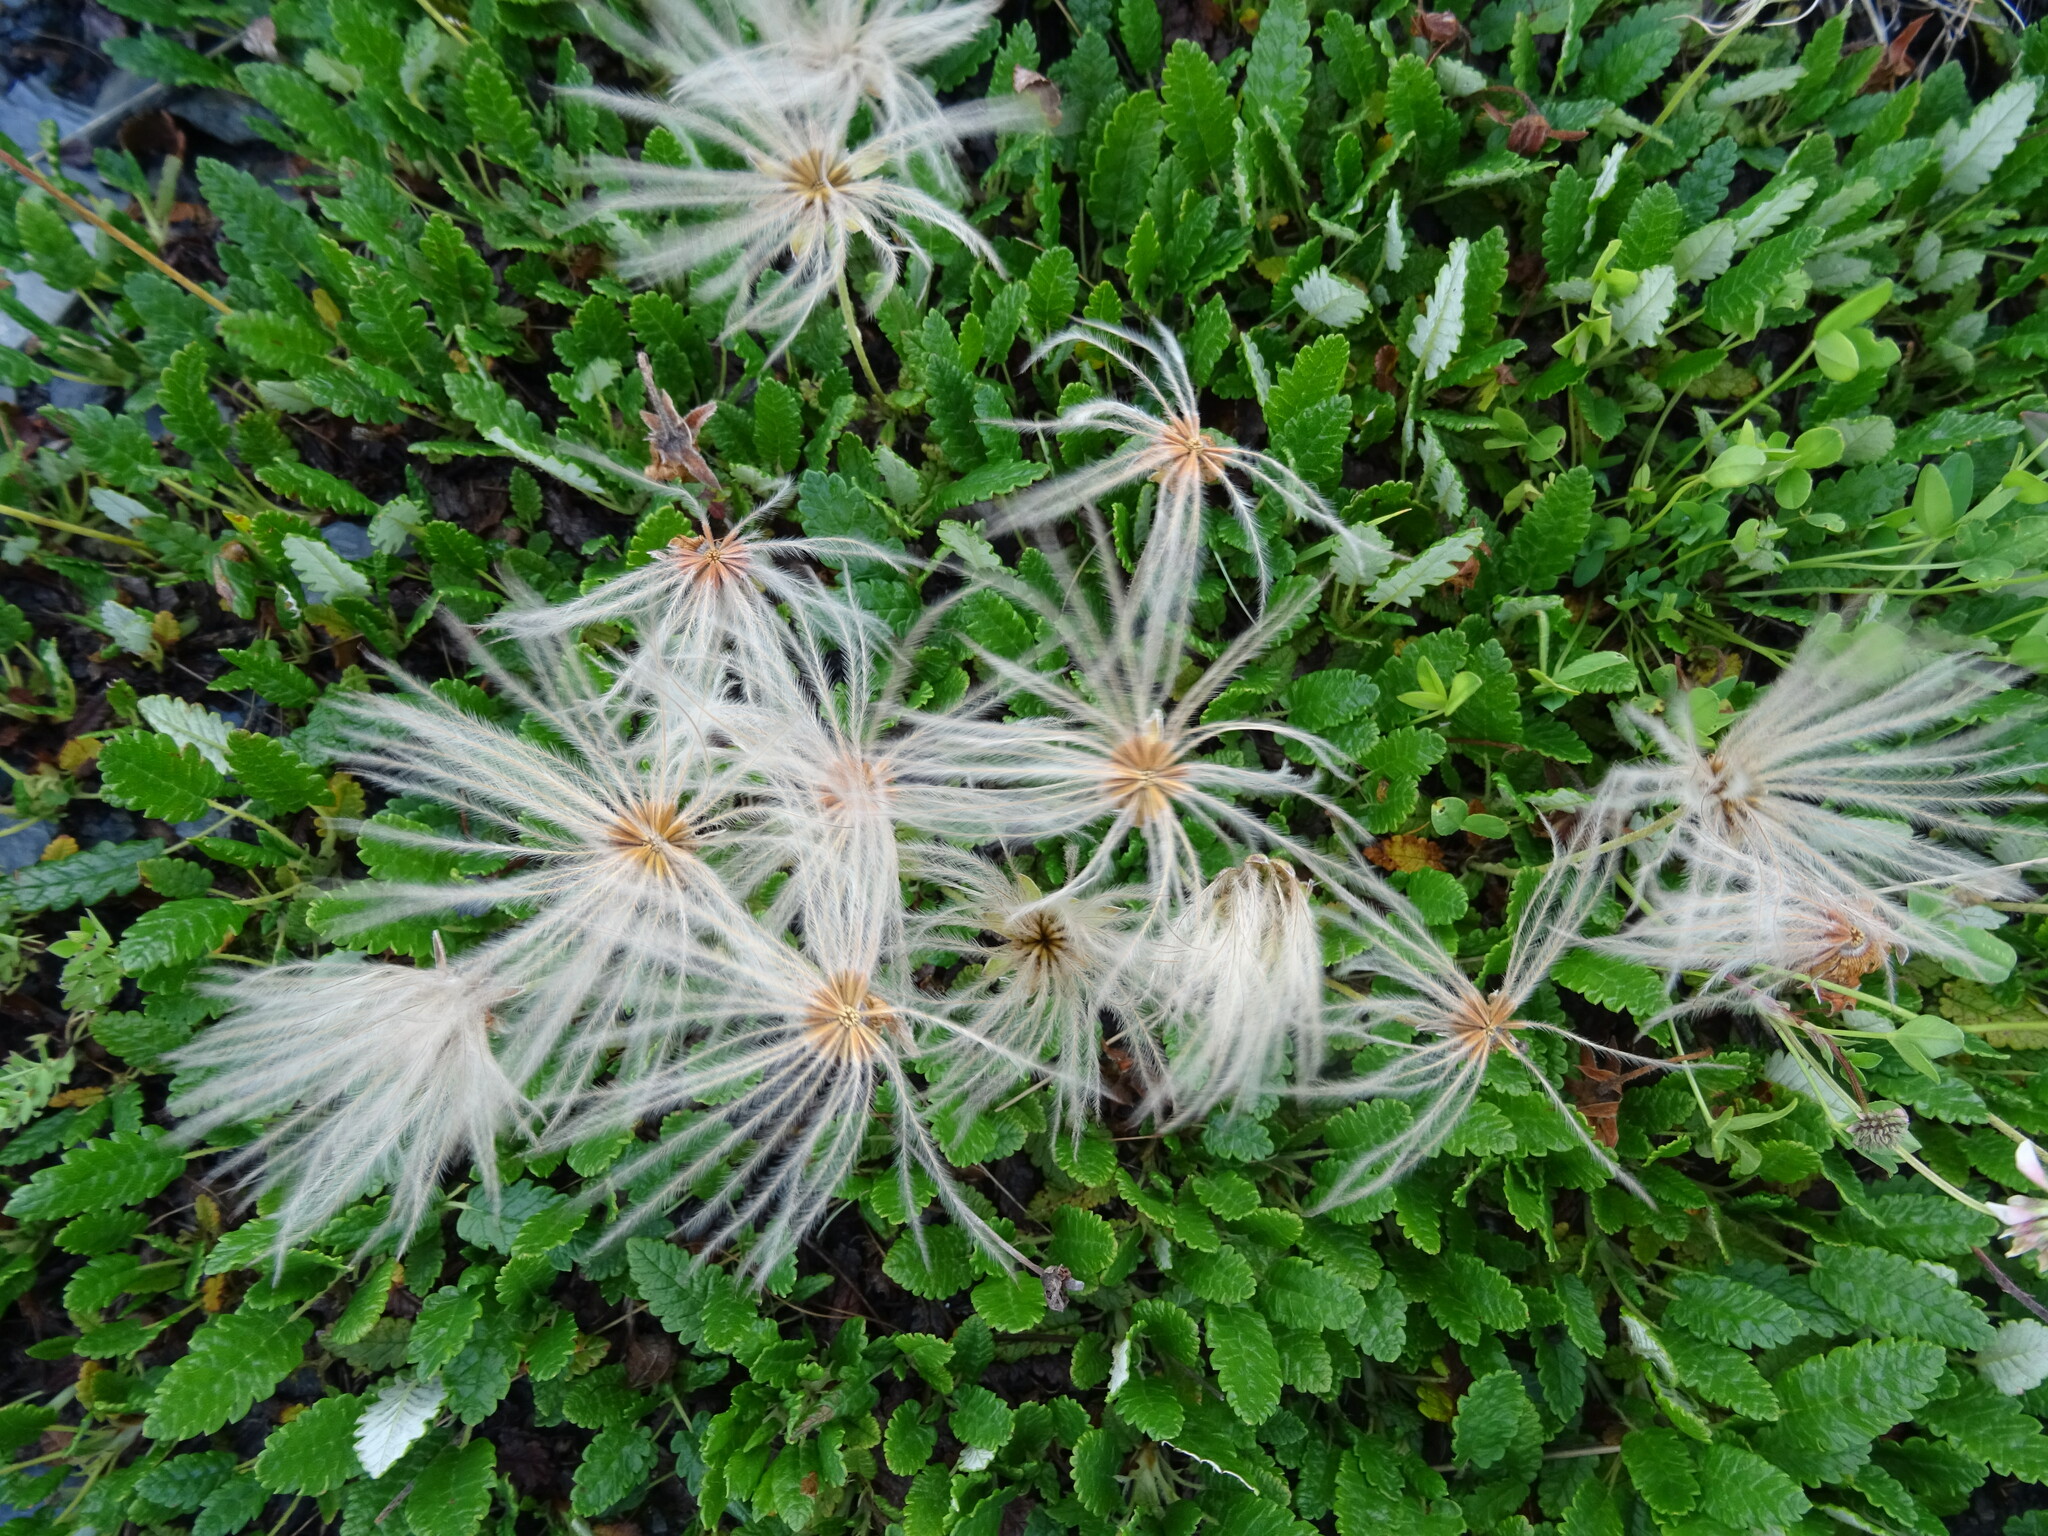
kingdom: Plantae
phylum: Tracheophyta
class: Magnoliopsida
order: Rosales
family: Rosaceae
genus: Dryas
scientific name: Dryas octopetala
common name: Eight-petal mountain-avens
